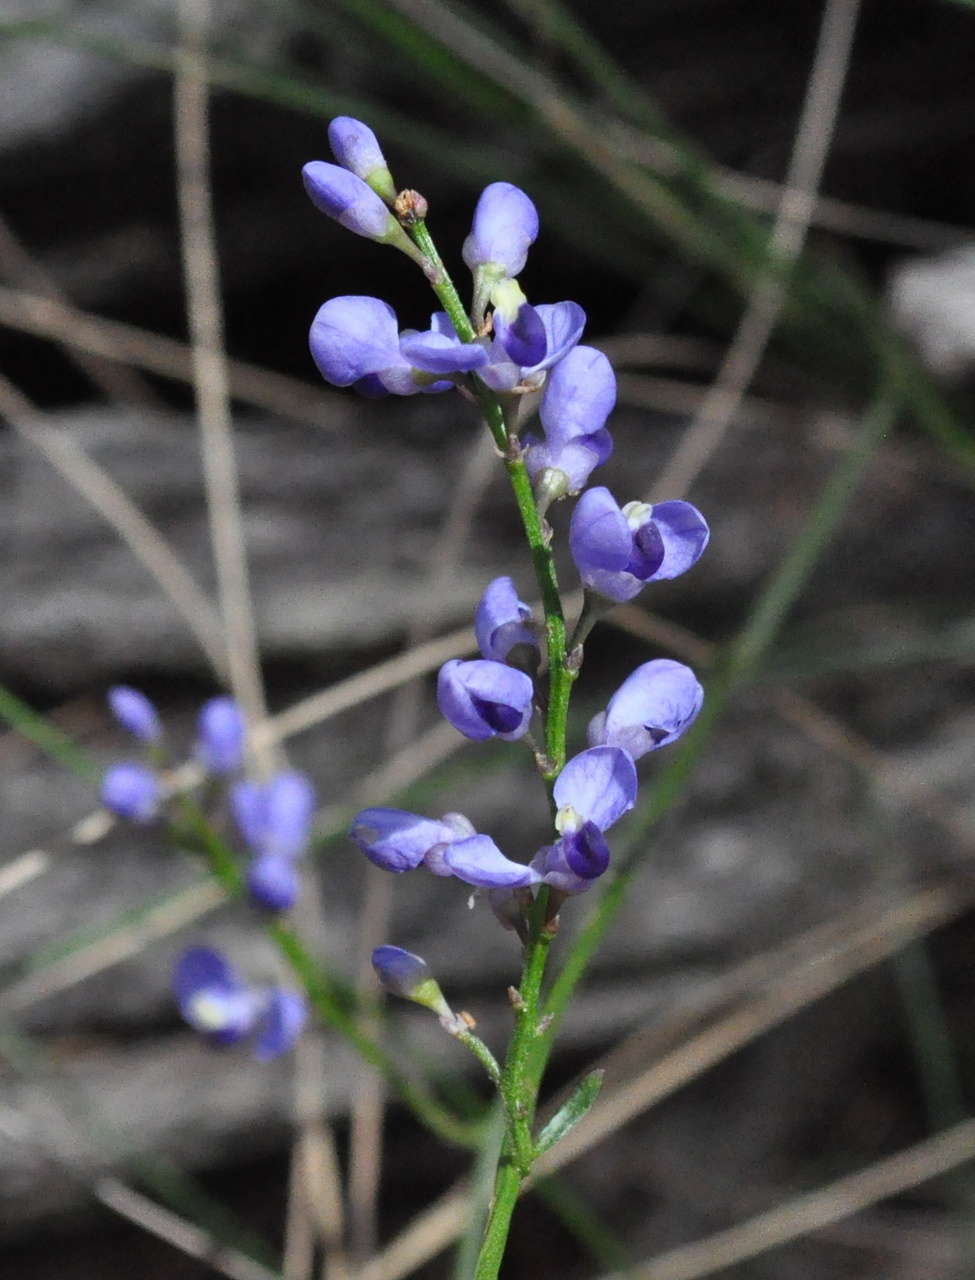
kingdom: Plantae
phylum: Tracheophyta
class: Magnoliopsida
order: Fabales
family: Polygalaceae
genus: Comesperma
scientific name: Comesperma volubile
